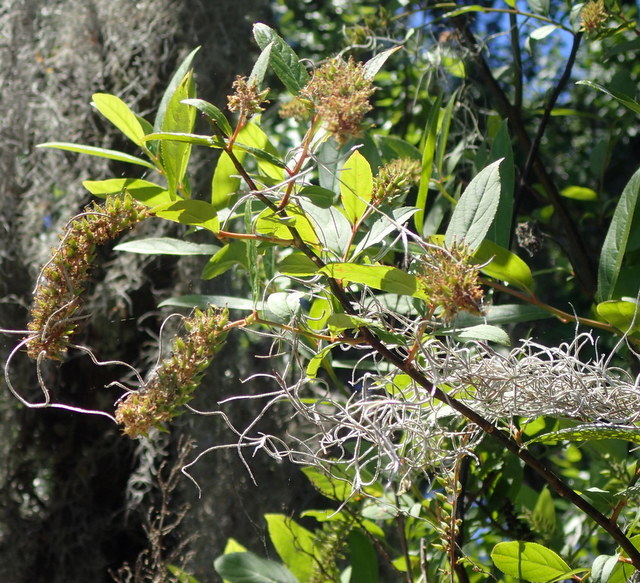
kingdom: Plantae
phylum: Tracheophyta
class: Magnoliopsida
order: Saxifragales
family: Iteaceae
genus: Itea
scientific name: Itea virginica
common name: Sweetspire
